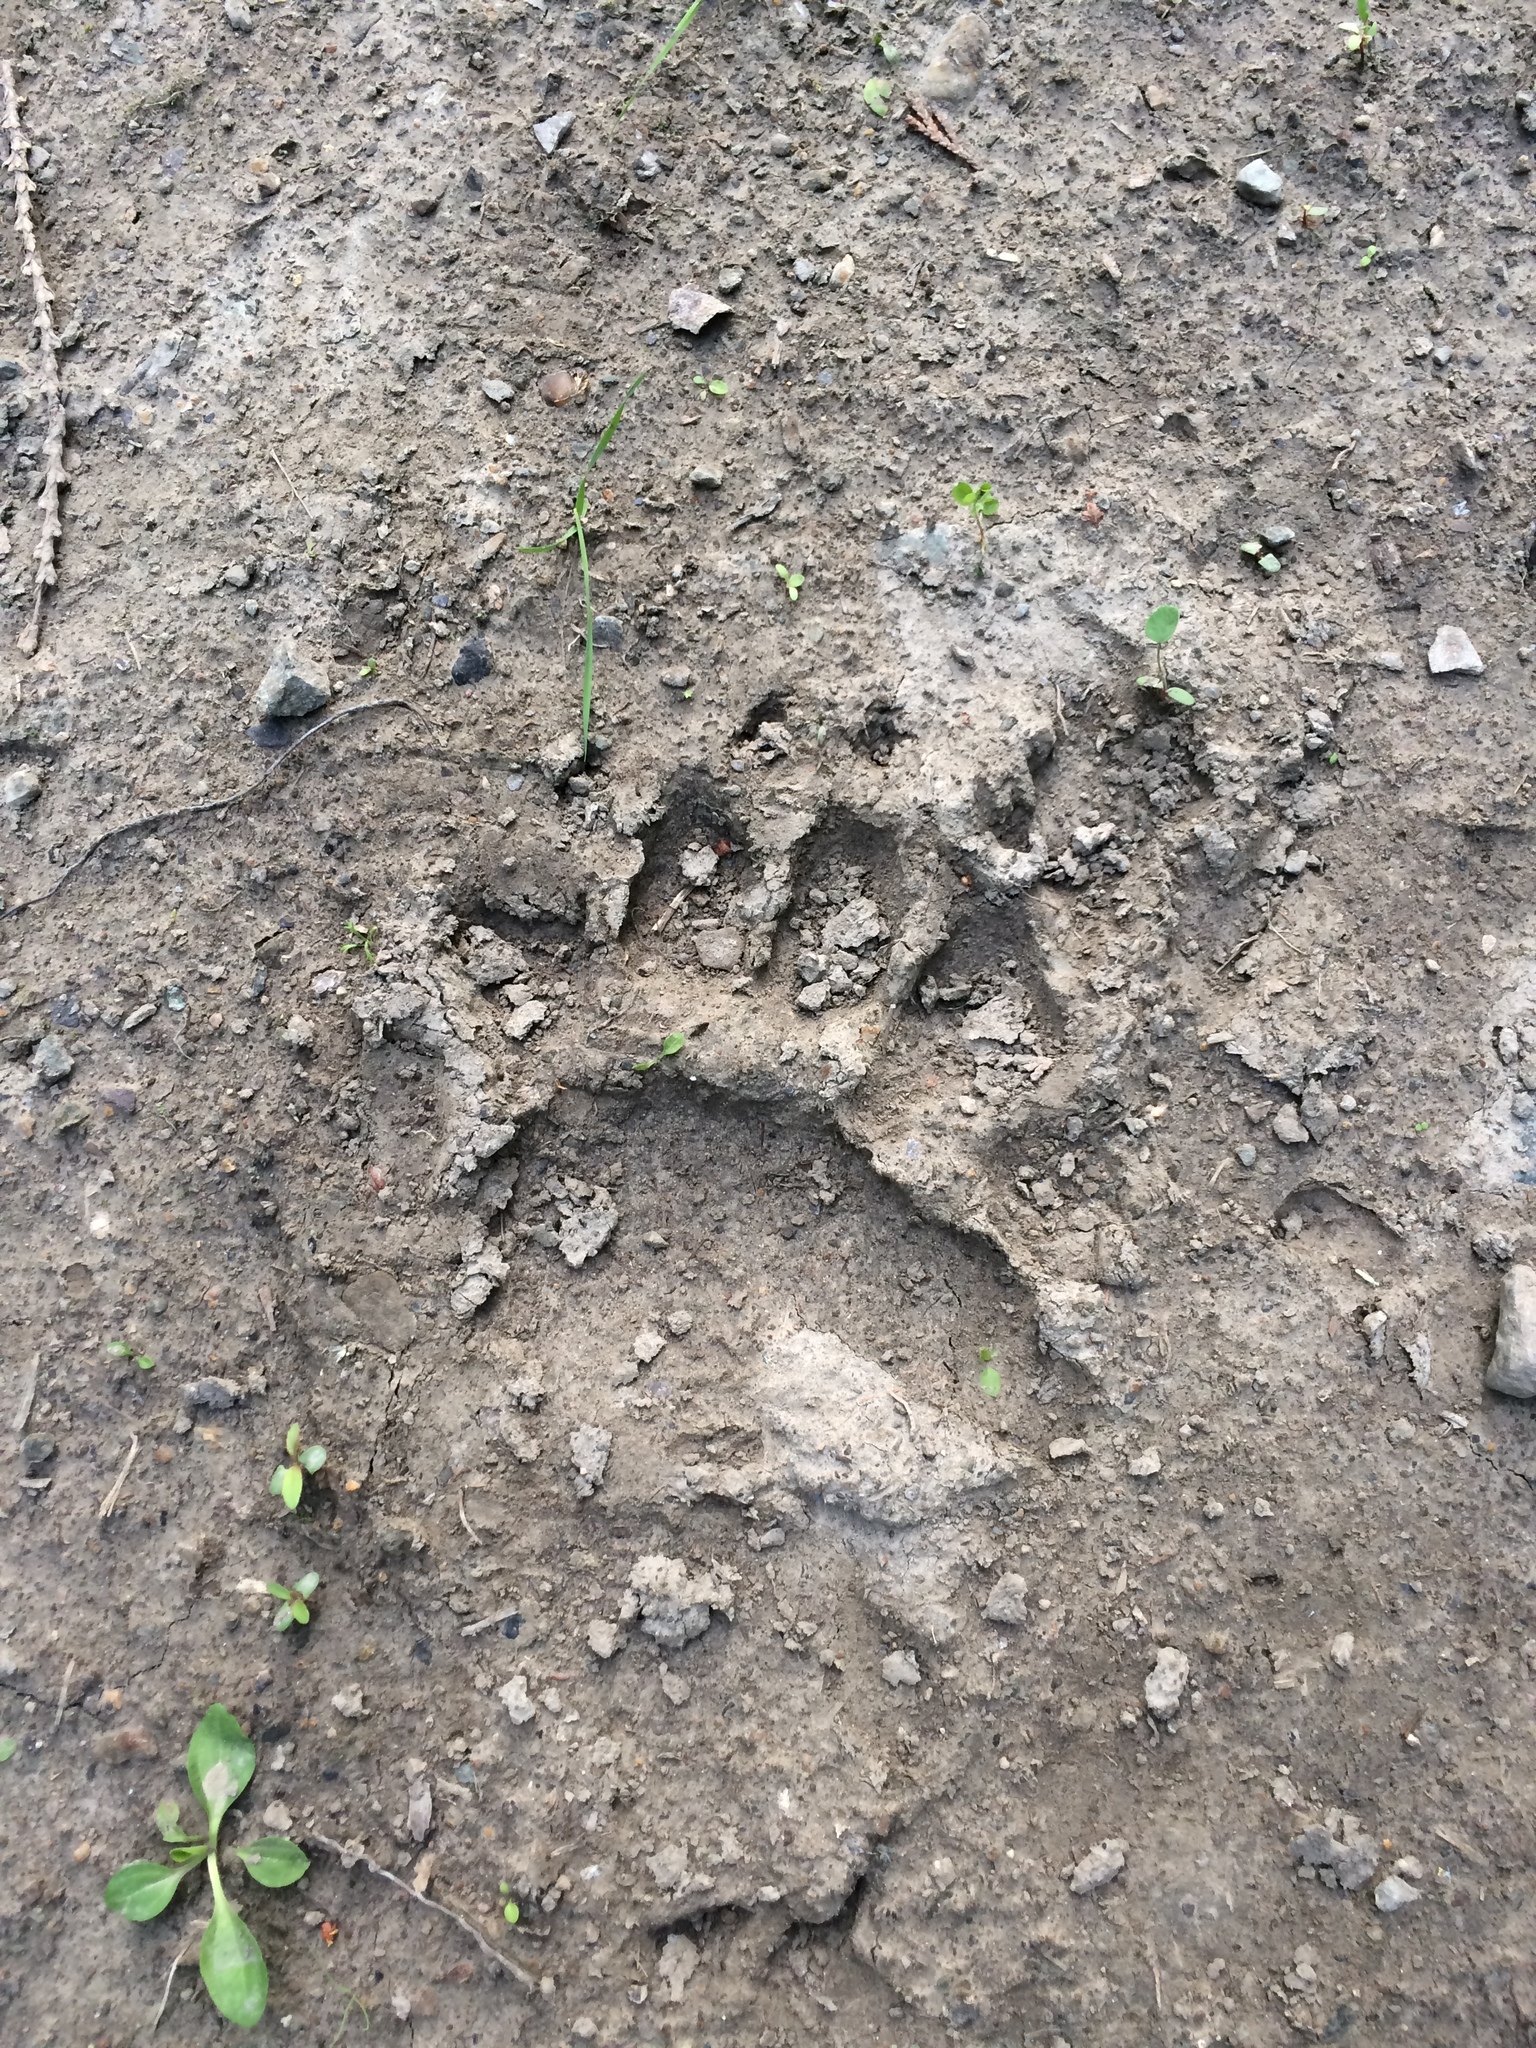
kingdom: Animalia
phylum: Chordata
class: Mammalia
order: Carnivora
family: Ursidae
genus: Ursus
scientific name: Ursus americanus
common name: American black bear
